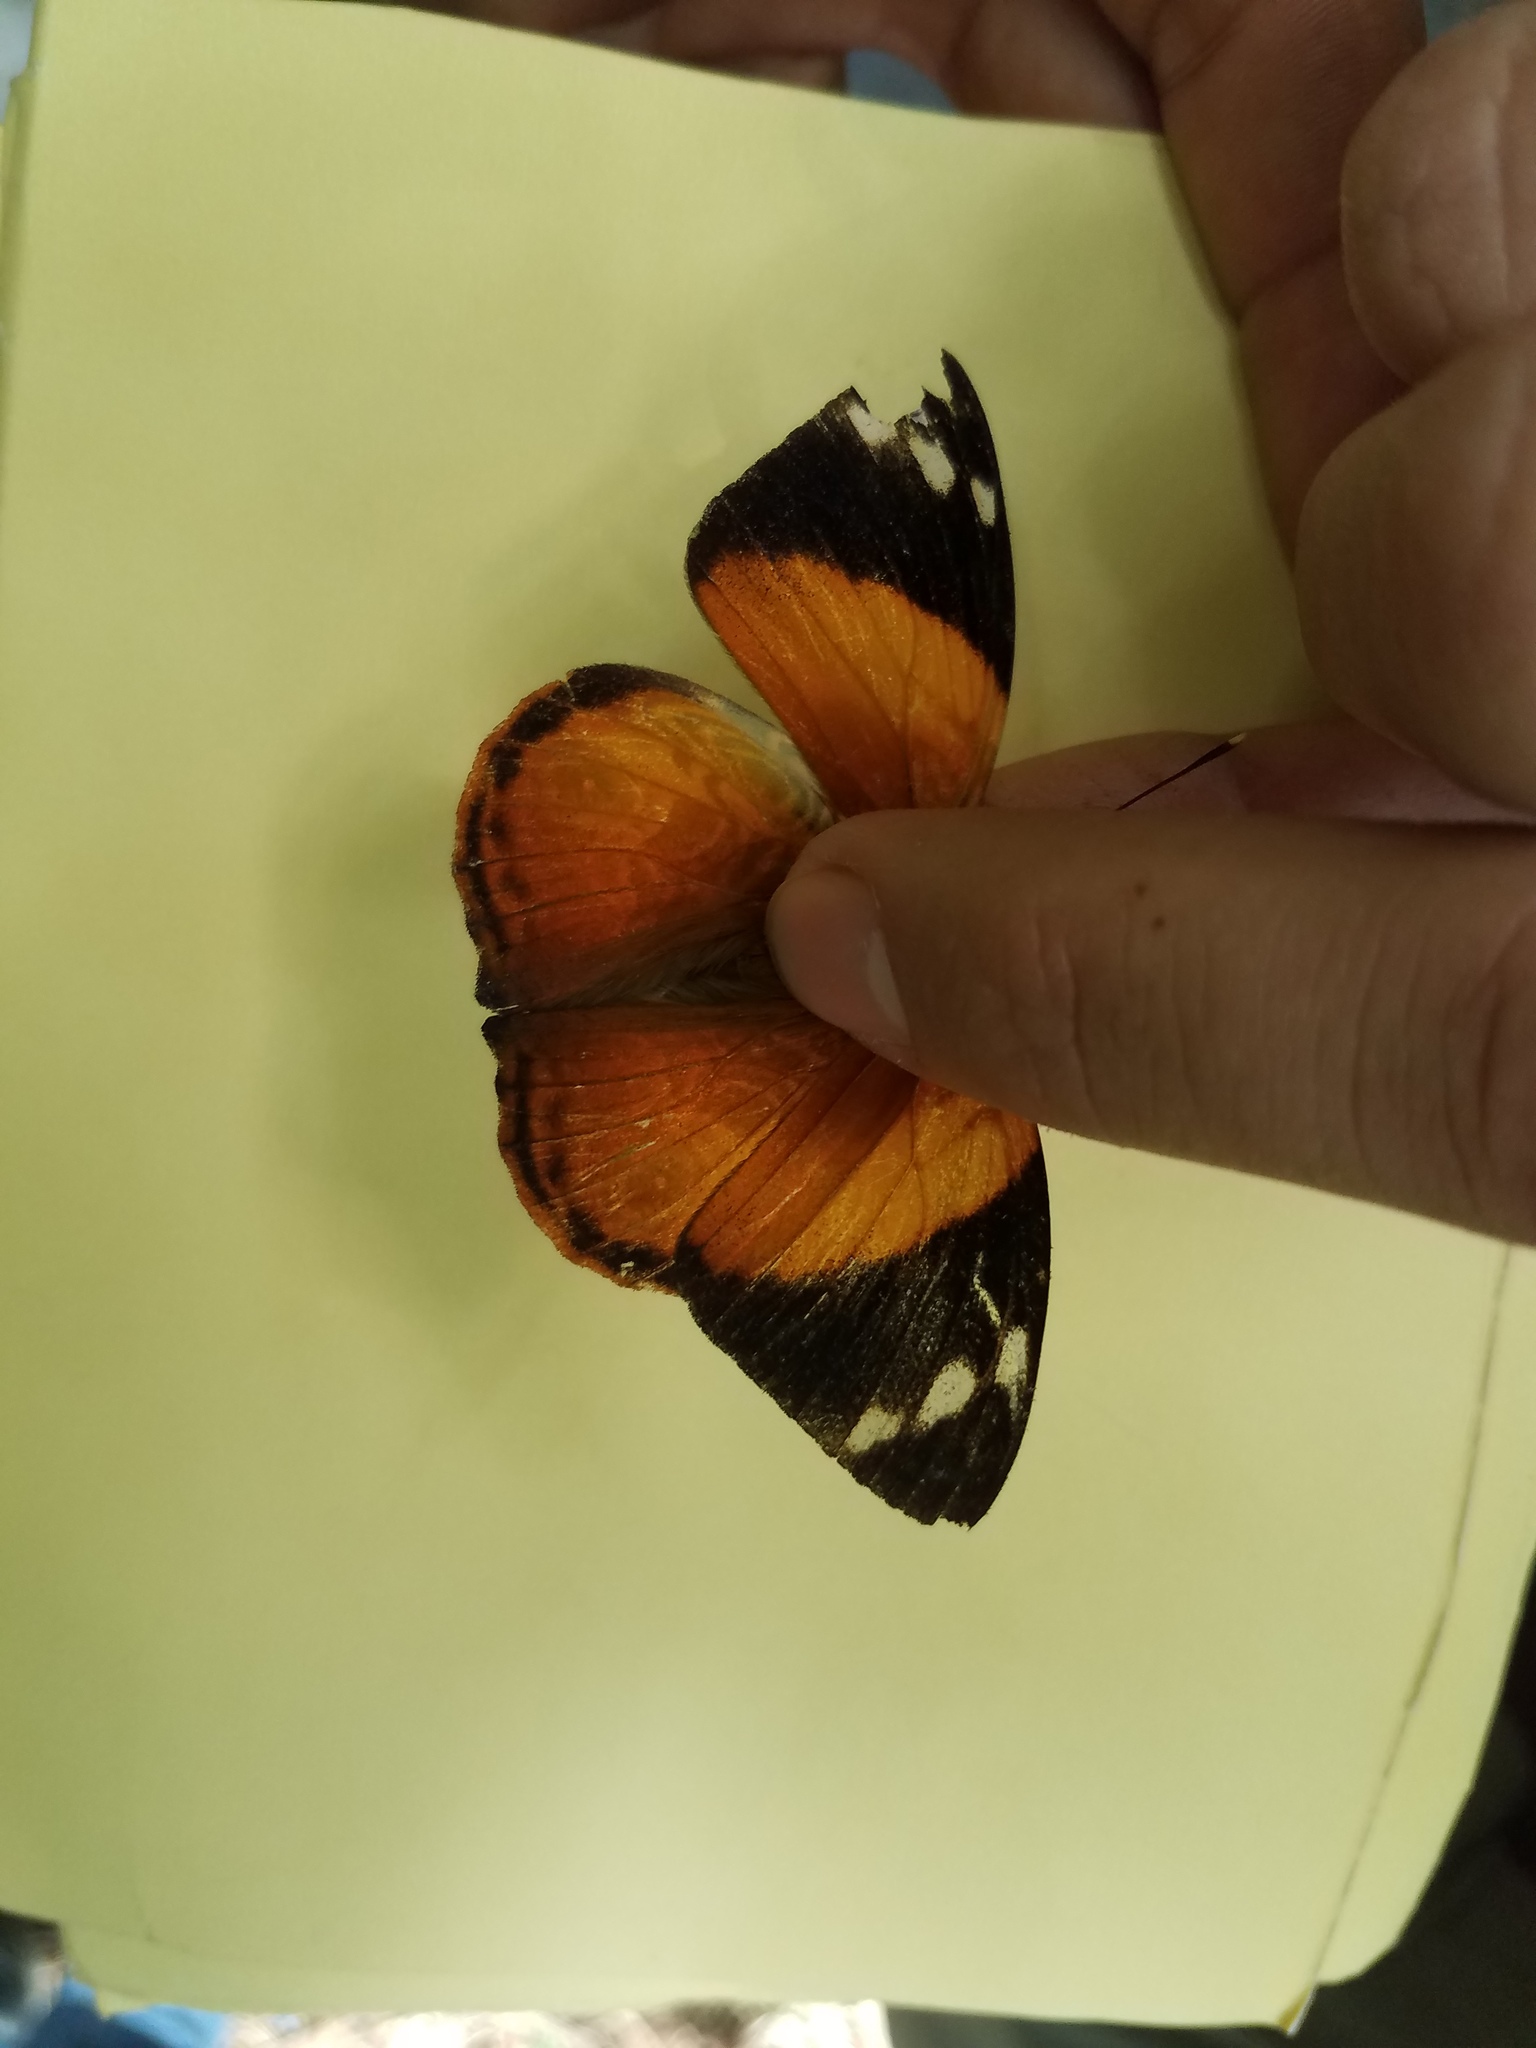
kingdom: Animalia
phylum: Arthropoda
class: Insecta
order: Lepidoptera
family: Nymphalidae
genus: Smyrna
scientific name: Smyrna blomfildia
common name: Blomfild's beauty
